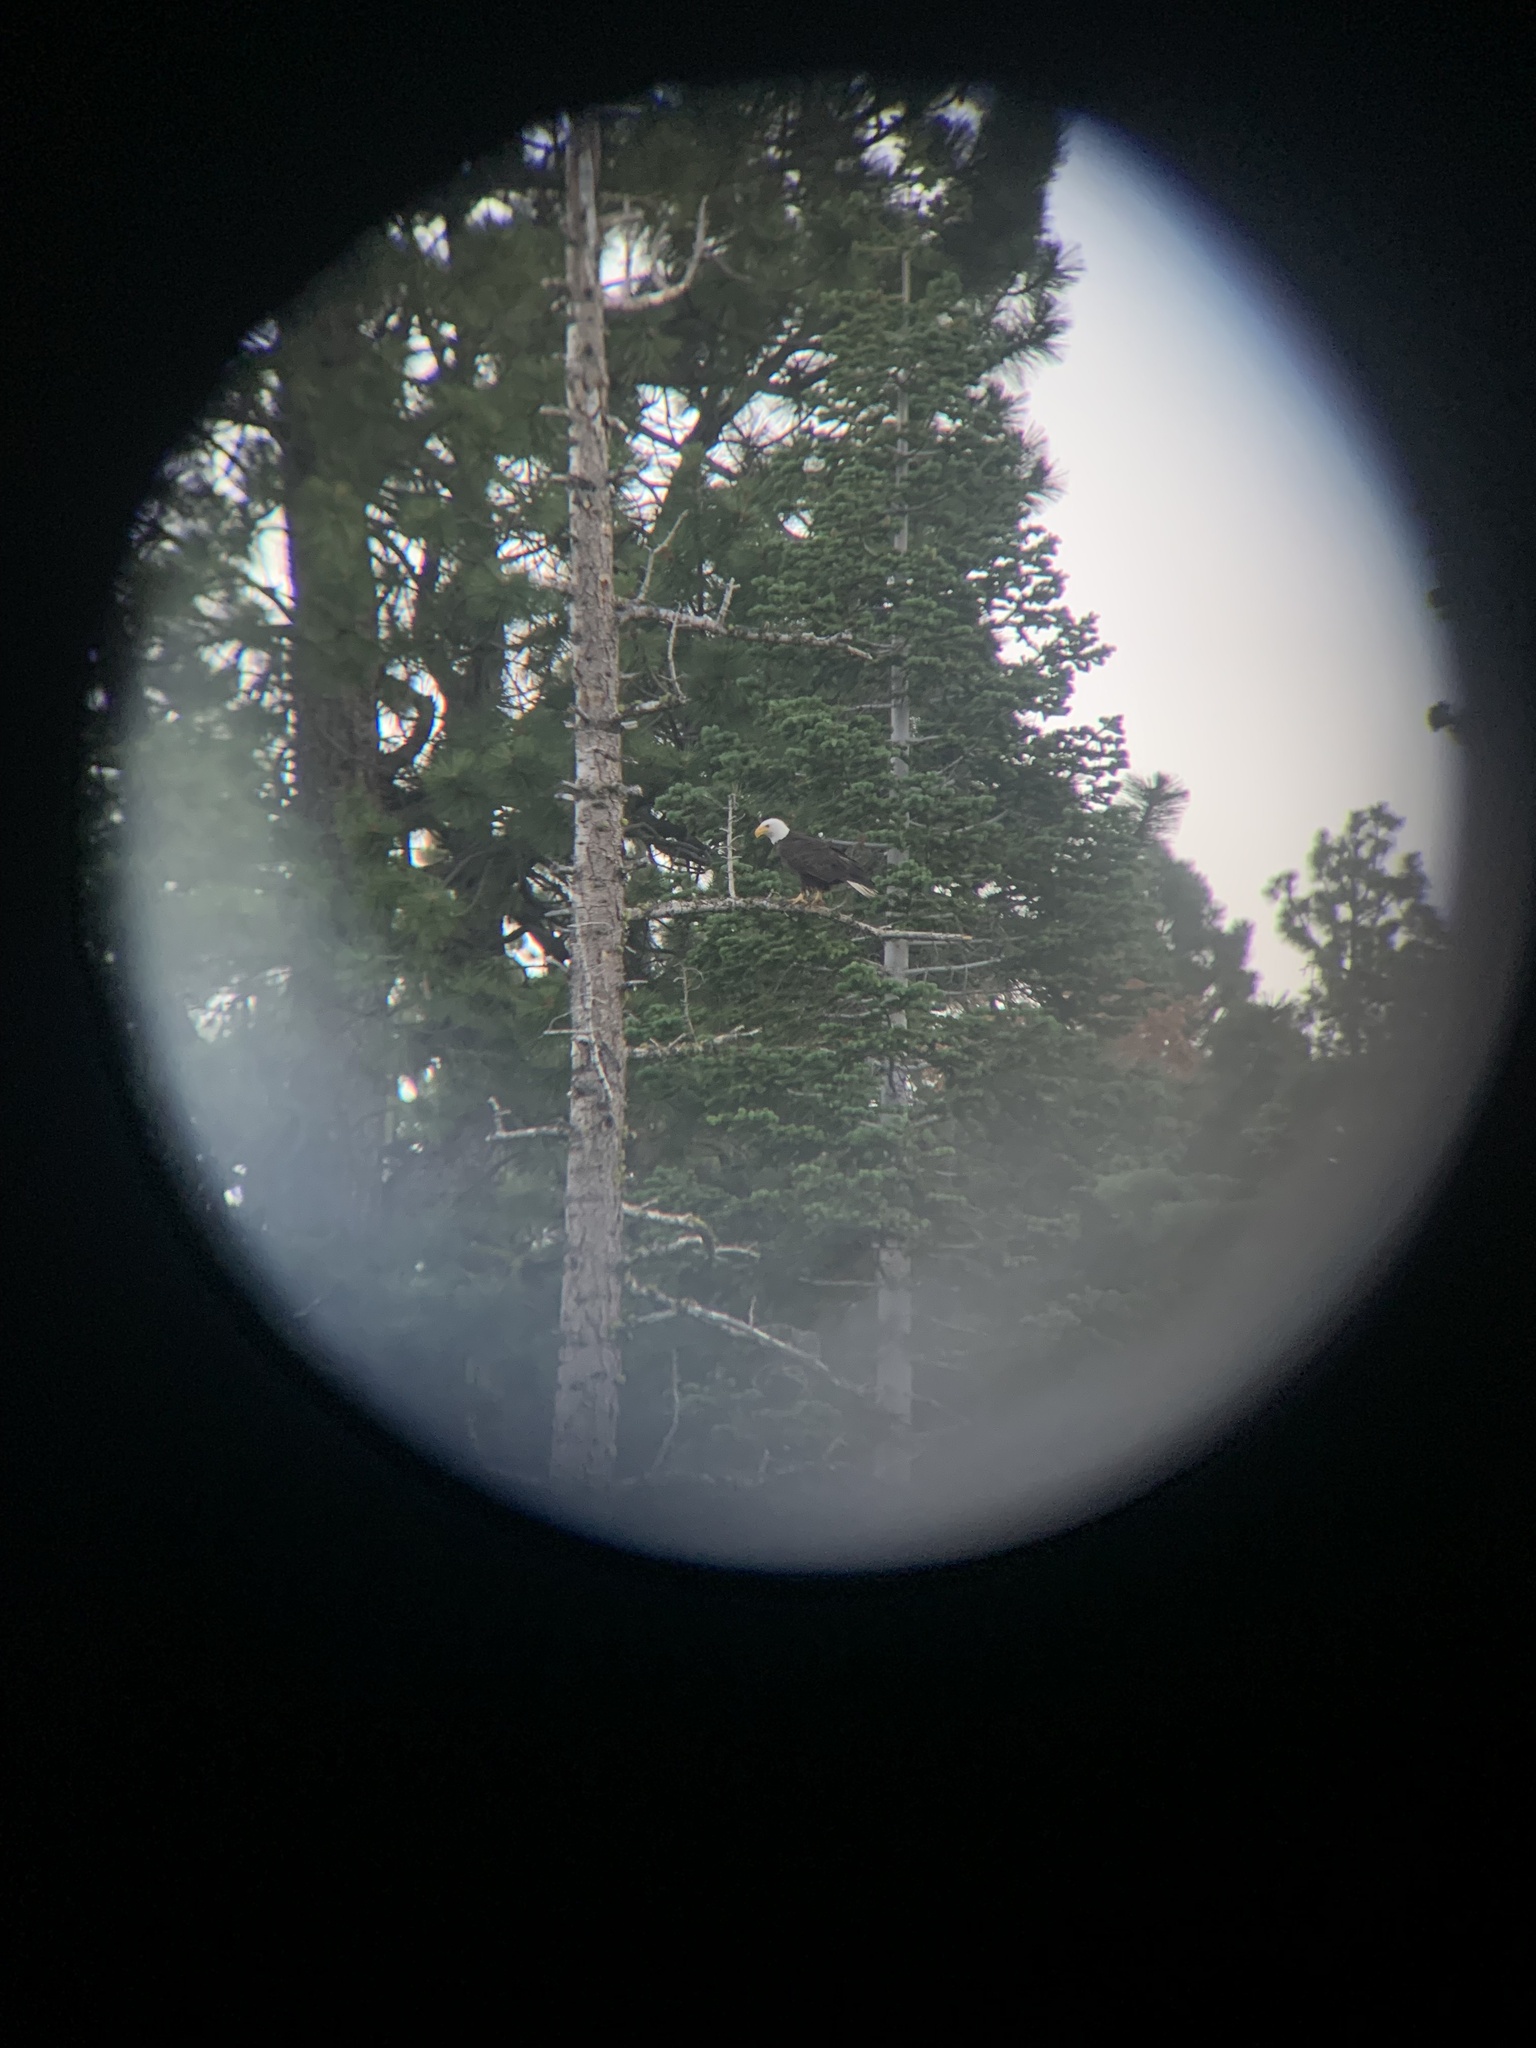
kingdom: Animalia
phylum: Chordata
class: Aves
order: Accipitriformes
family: Accipitridae
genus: Haliaeetus
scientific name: Haliaeetus leucocephalus
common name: Bald eagle
